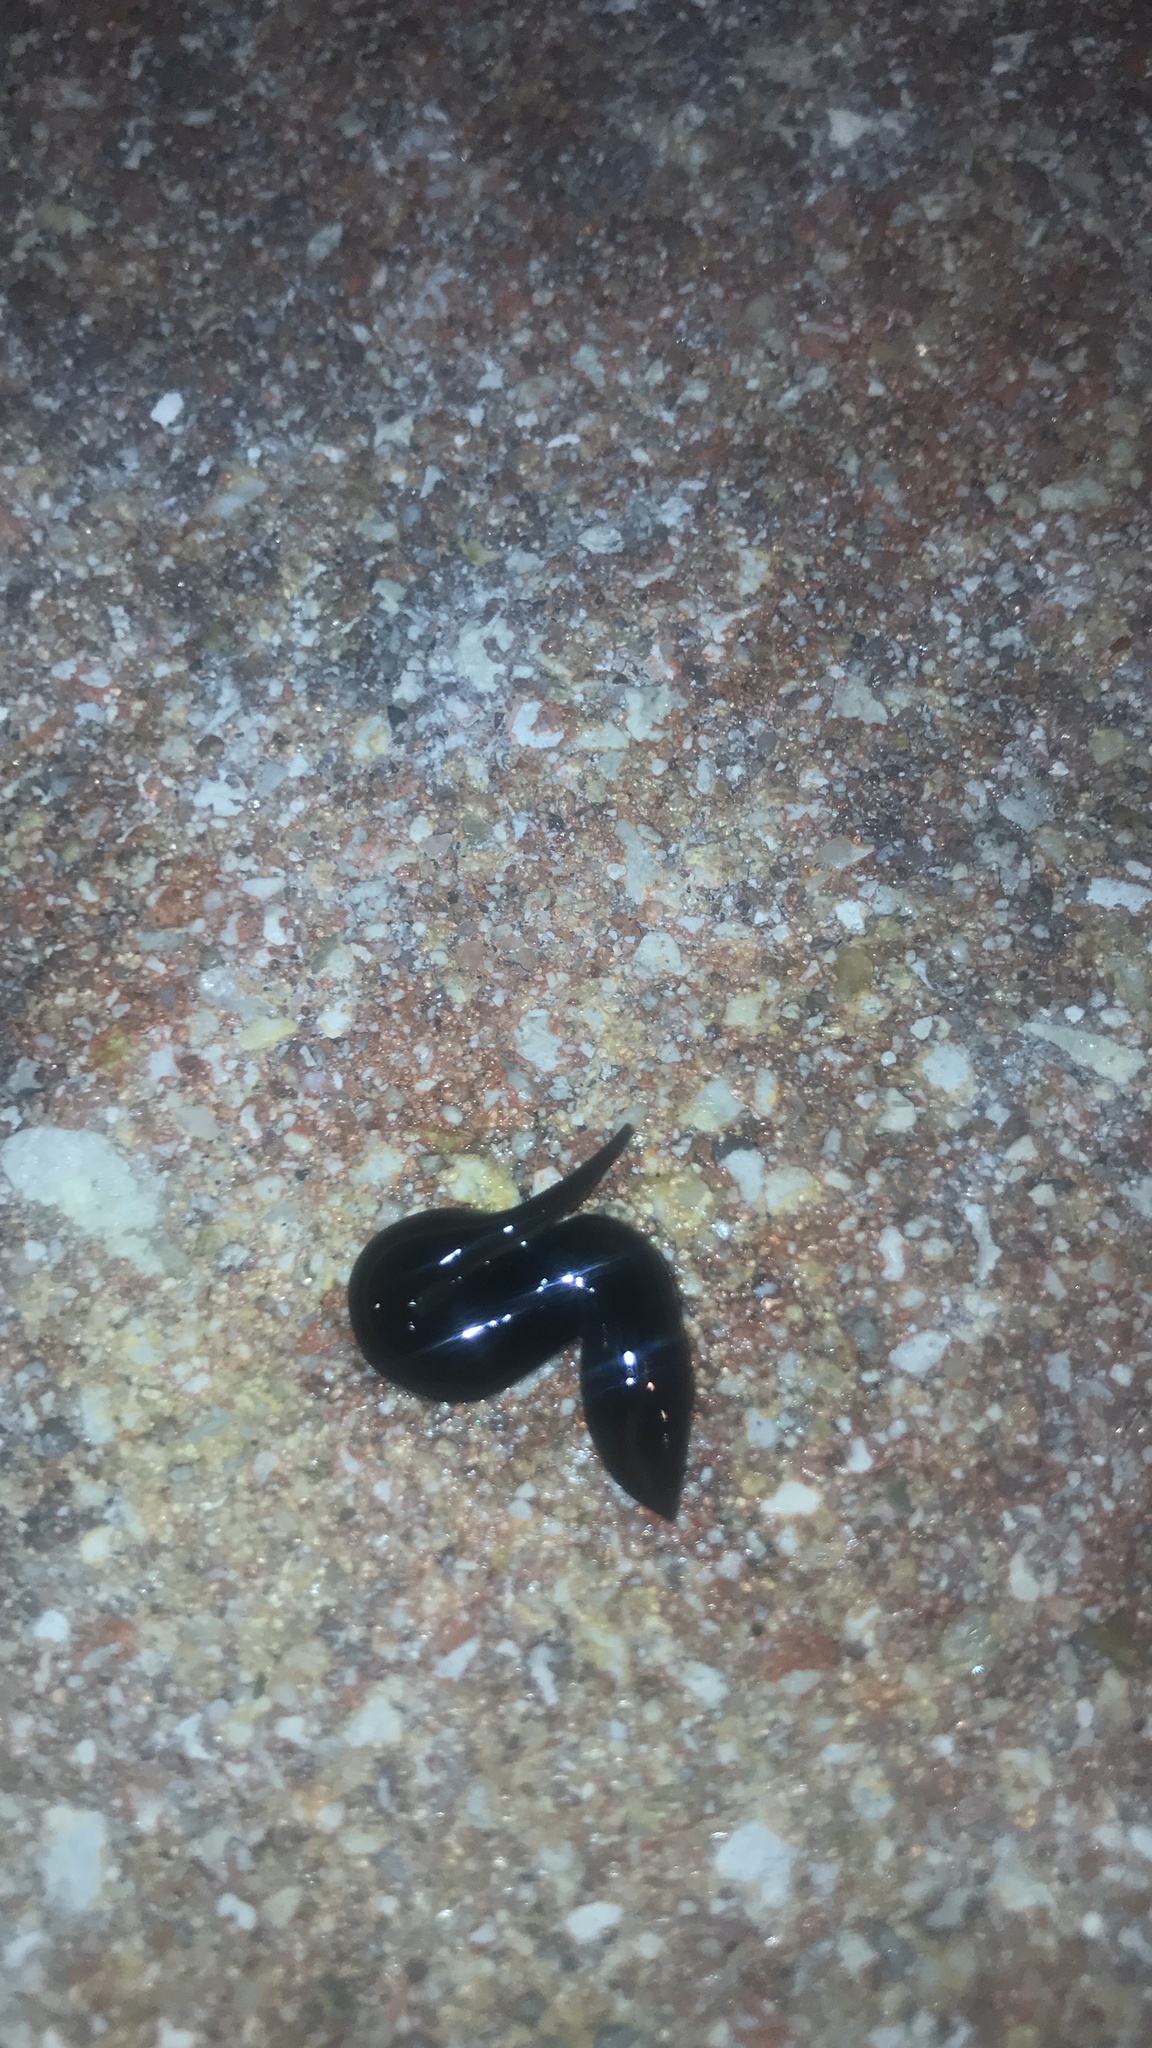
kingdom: Animalia
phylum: Platyhelminthes
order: Tricladida
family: Geoplanidae
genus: Platydemus
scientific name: Platydemus manokwari
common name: New guinea flatworm
